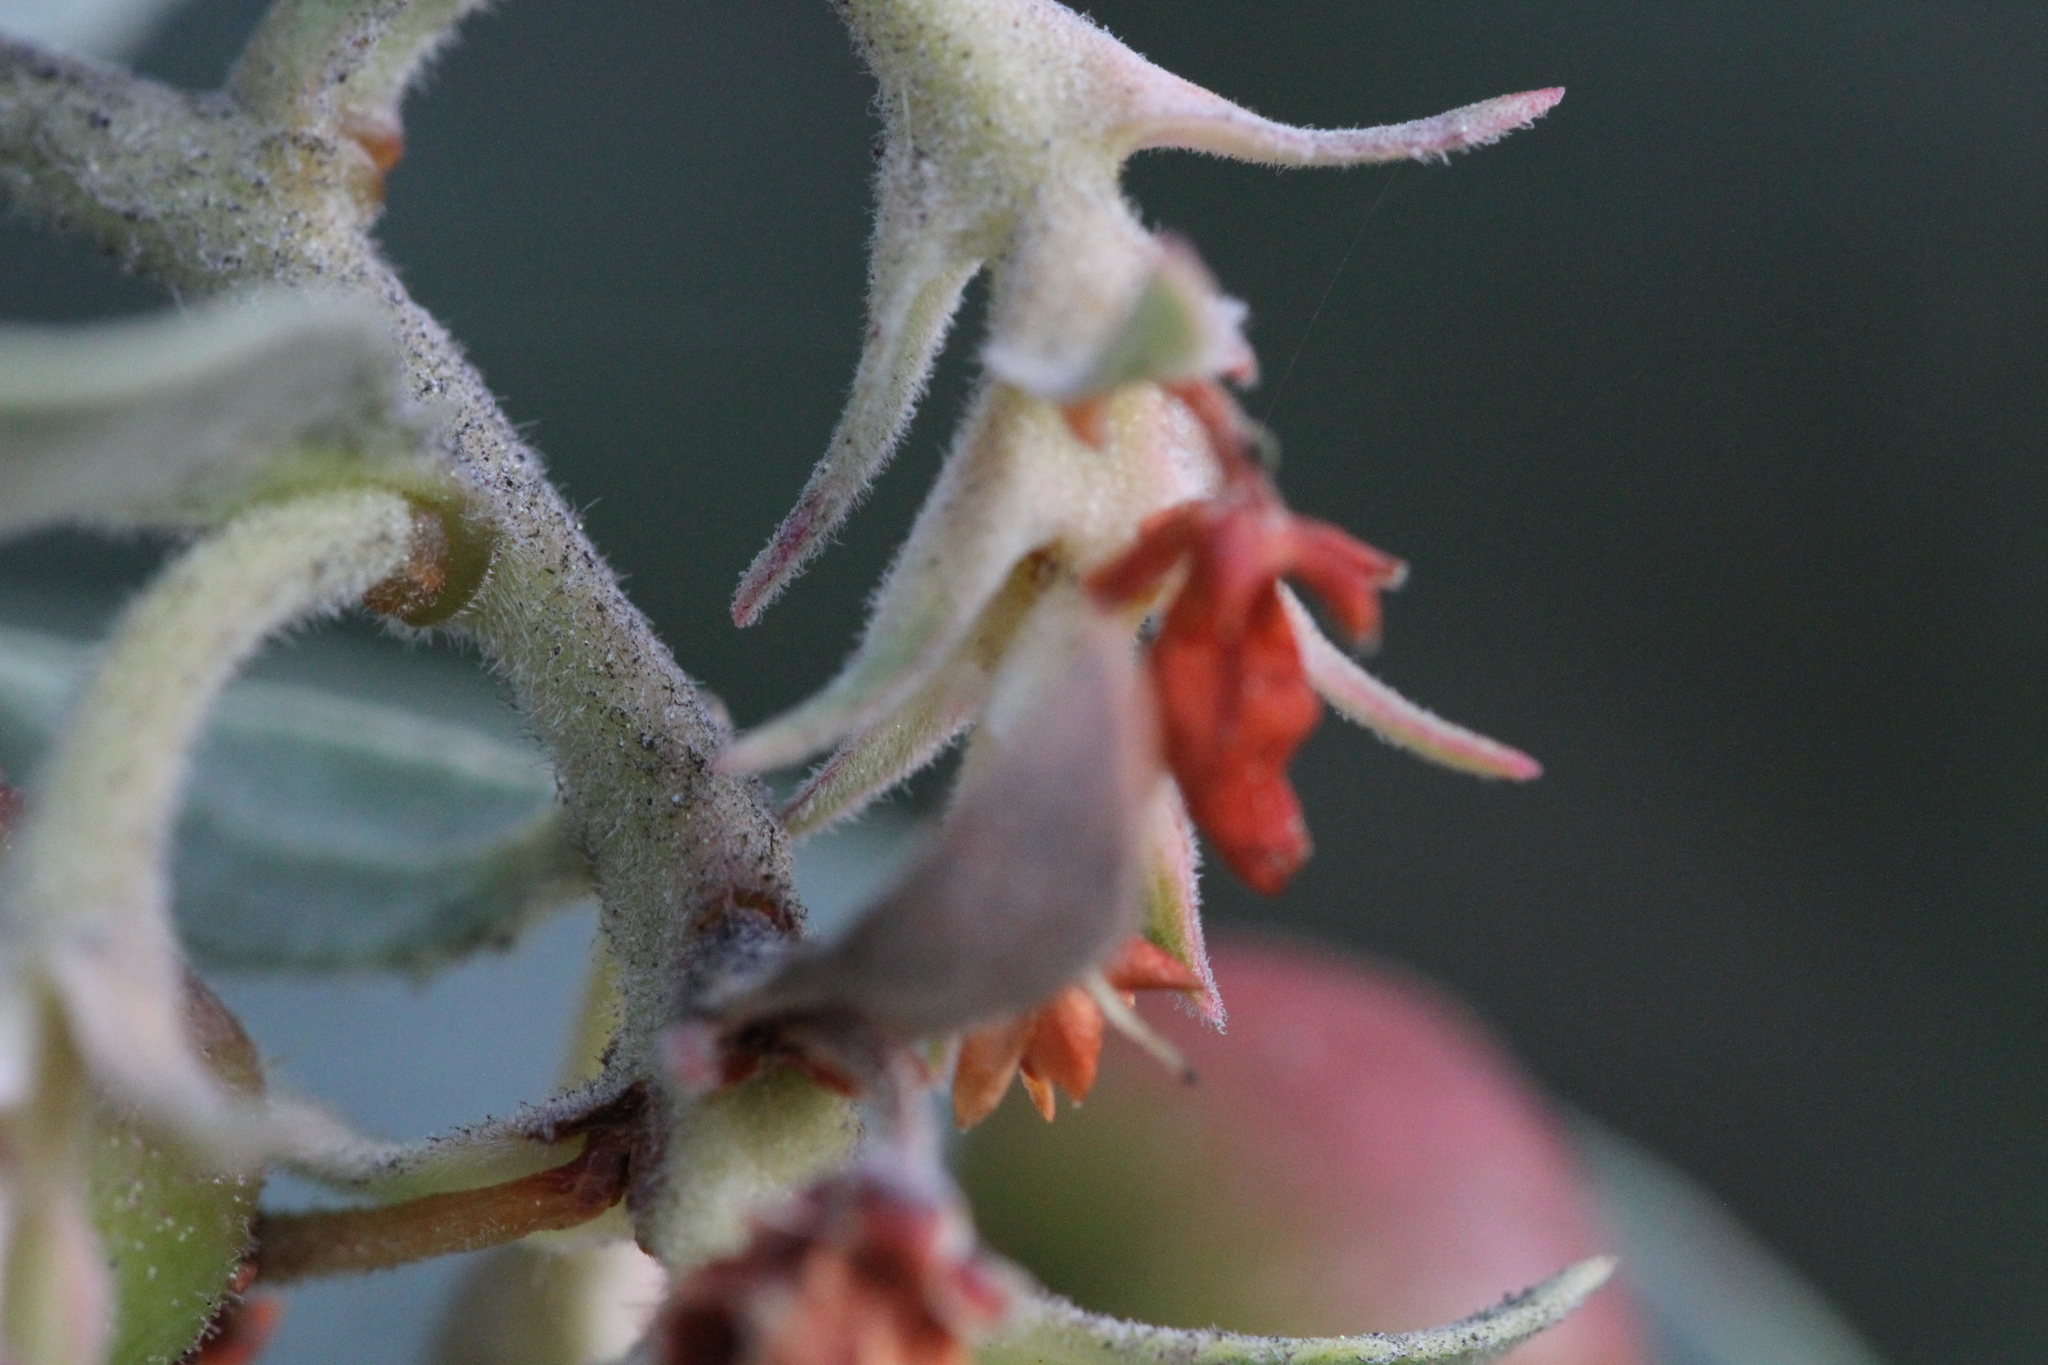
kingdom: Plantae
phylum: Tracheophyta
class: Magnoliopsida
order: Ericales
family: Ericaceae
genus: Arctostaphylos
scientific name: Arctostaphylos glutinosa
